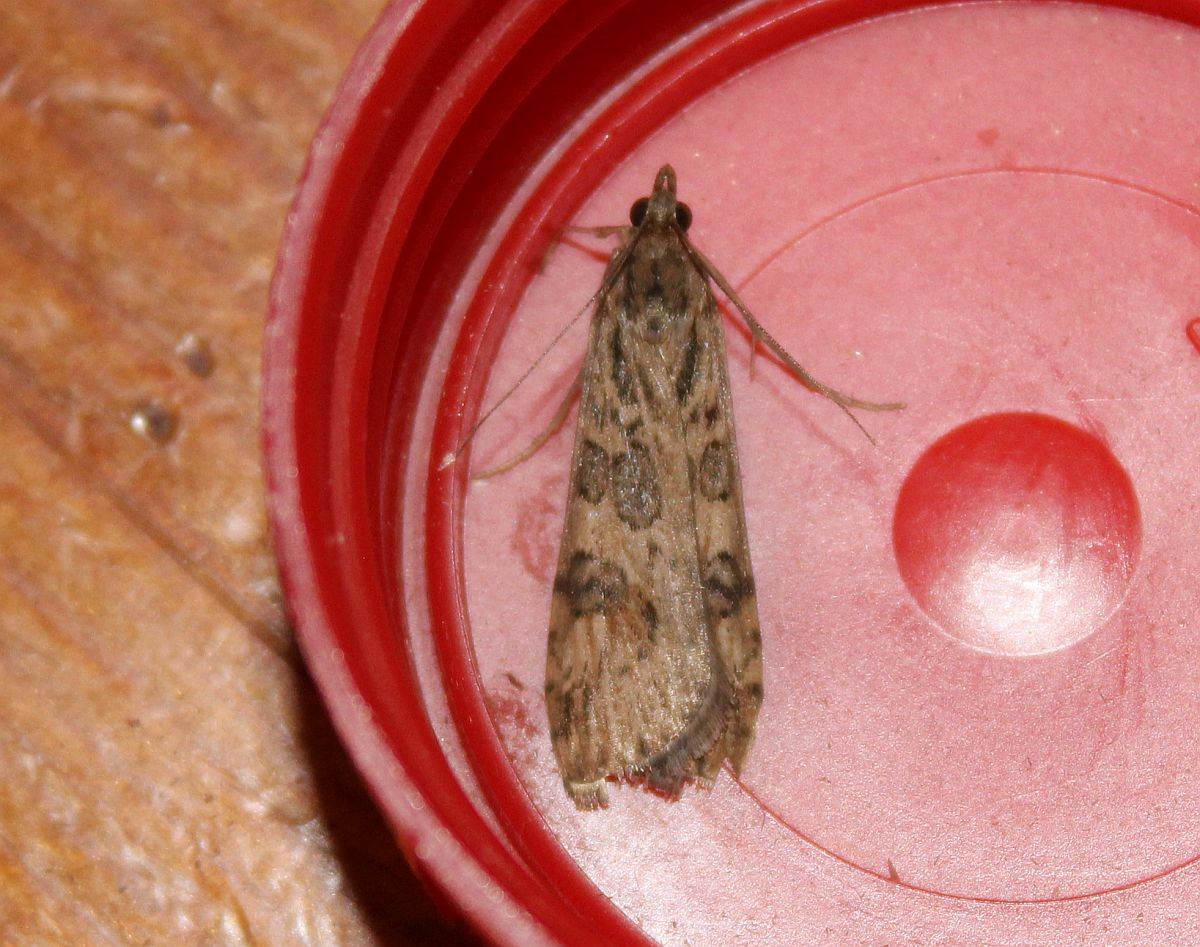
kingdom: Animalia
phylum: Arthropoda
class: Insecta
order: Lepidoptera
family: Crambidae
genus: Nomophila
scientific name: Nomophila noctuella
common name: Rush veneer
